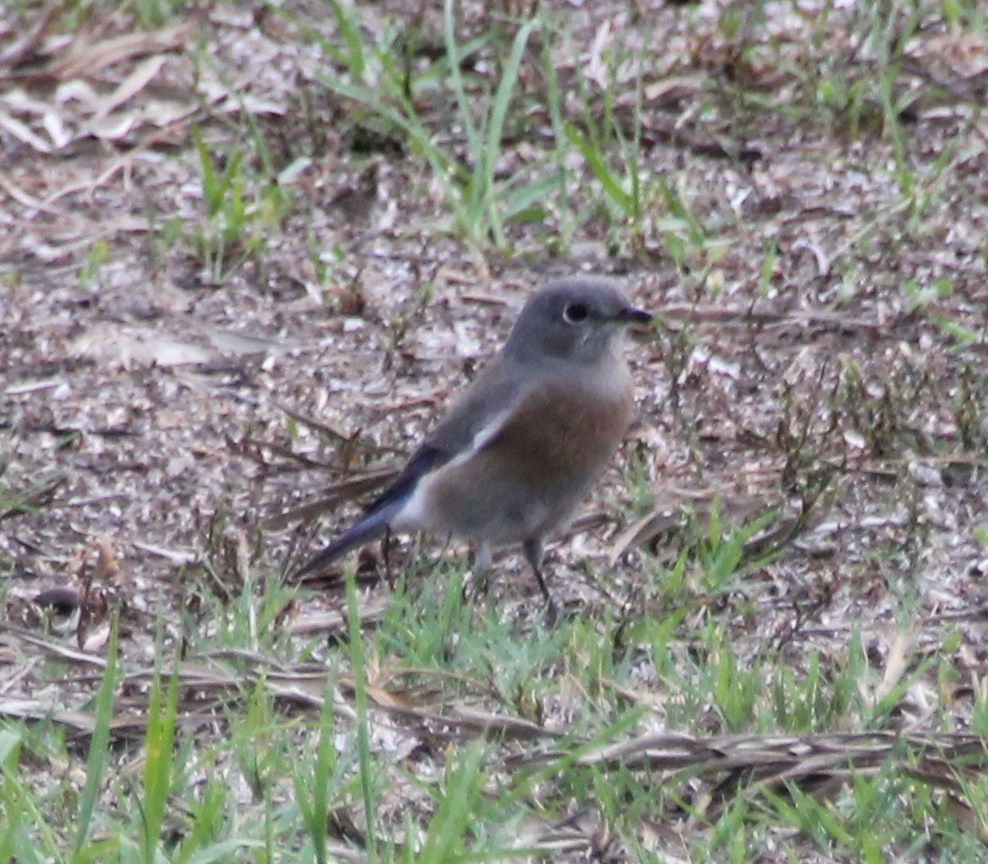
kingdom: Animalia
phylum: Chordata
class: Aves
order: Passeriformes
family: Turdidae
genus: Sialia
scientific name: Sialia mexicana
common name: Western bluebird
